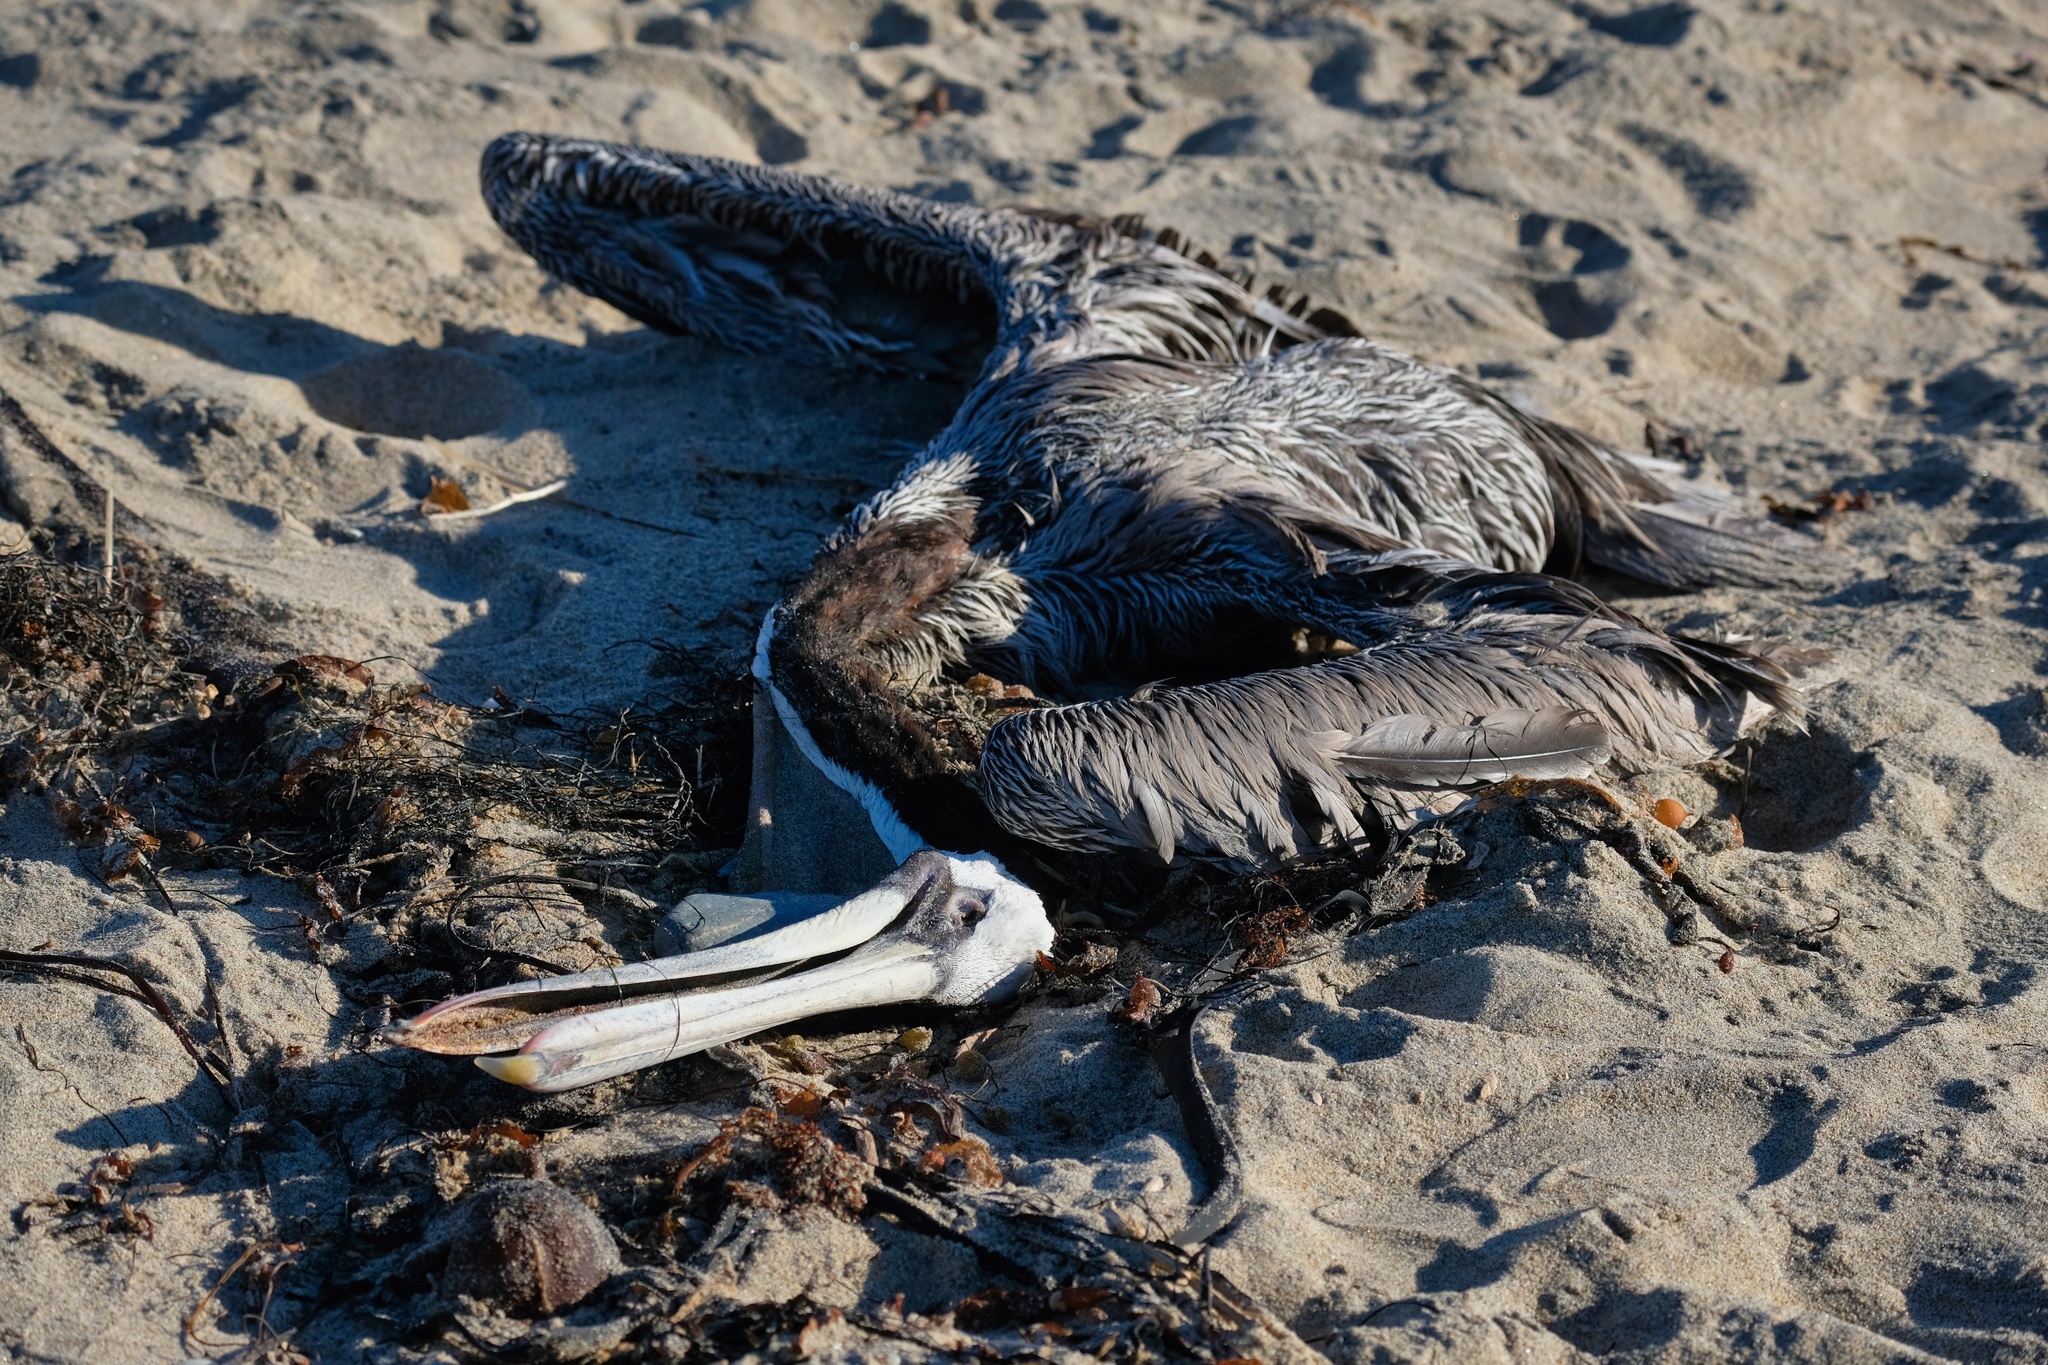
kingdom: Animalia
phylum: Chordata
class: Aves
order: Pelecaniformes
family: Pelecanidae
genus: Pelecanus
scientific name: Pelecanus occidentalis
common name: Brown pelican
